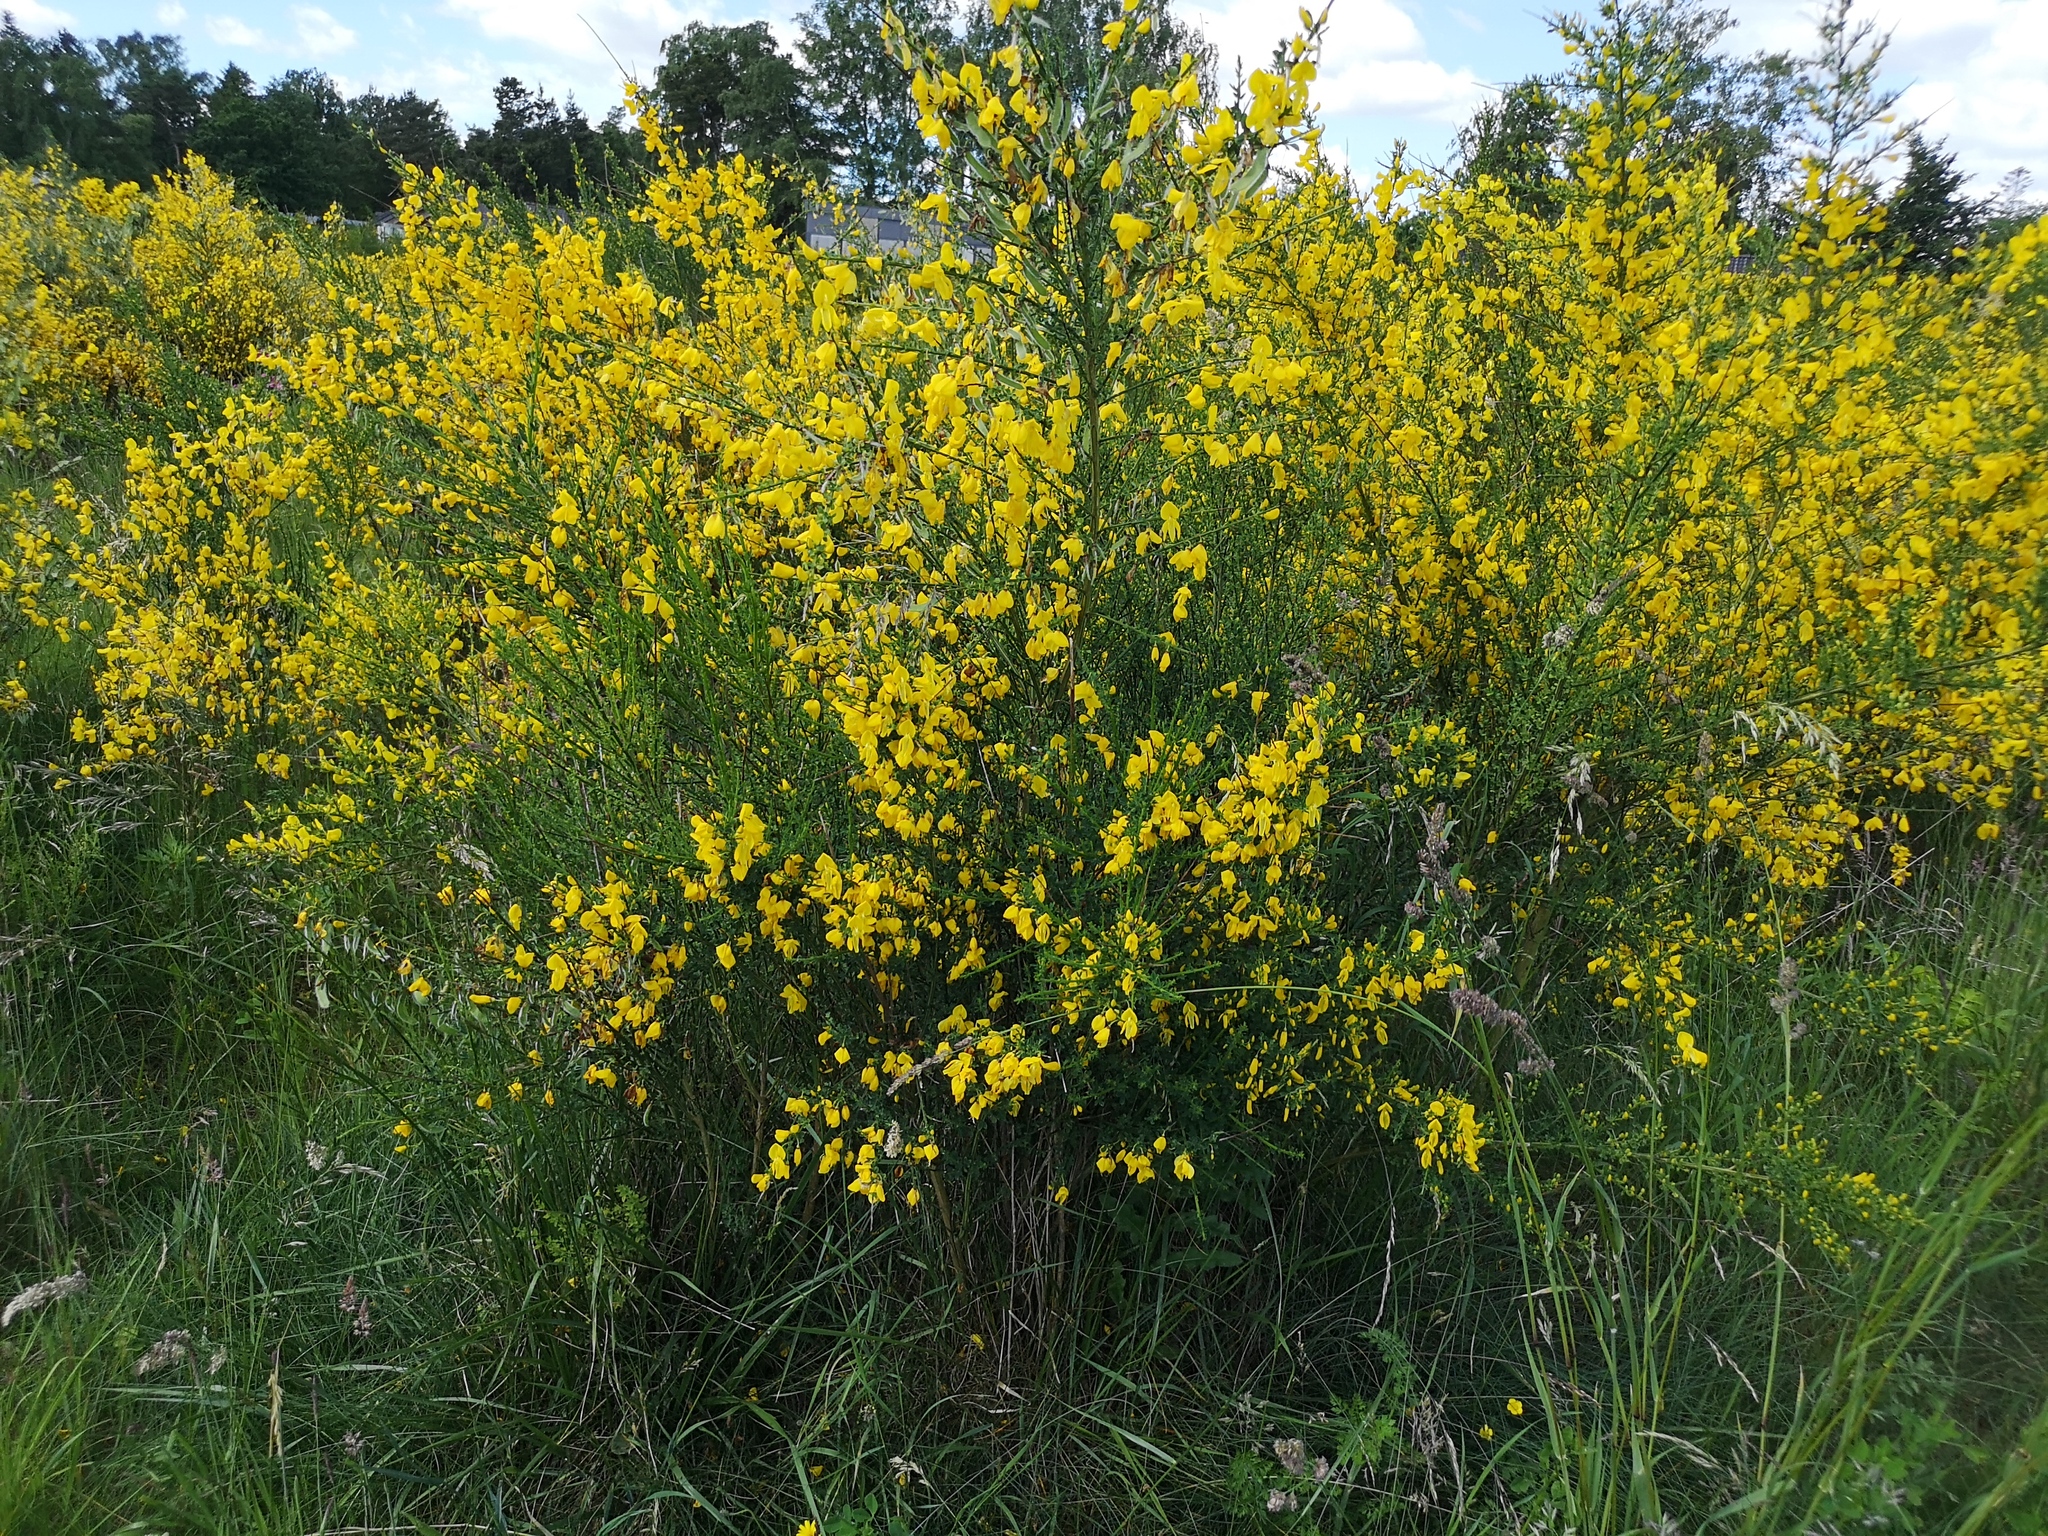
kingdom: Plantae
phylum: Tracheophyta
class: Magnoliopsida
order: Fabales
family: Fabaceae
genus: Cytisus
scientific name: Cytisus scoparius
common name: Scotch broom
